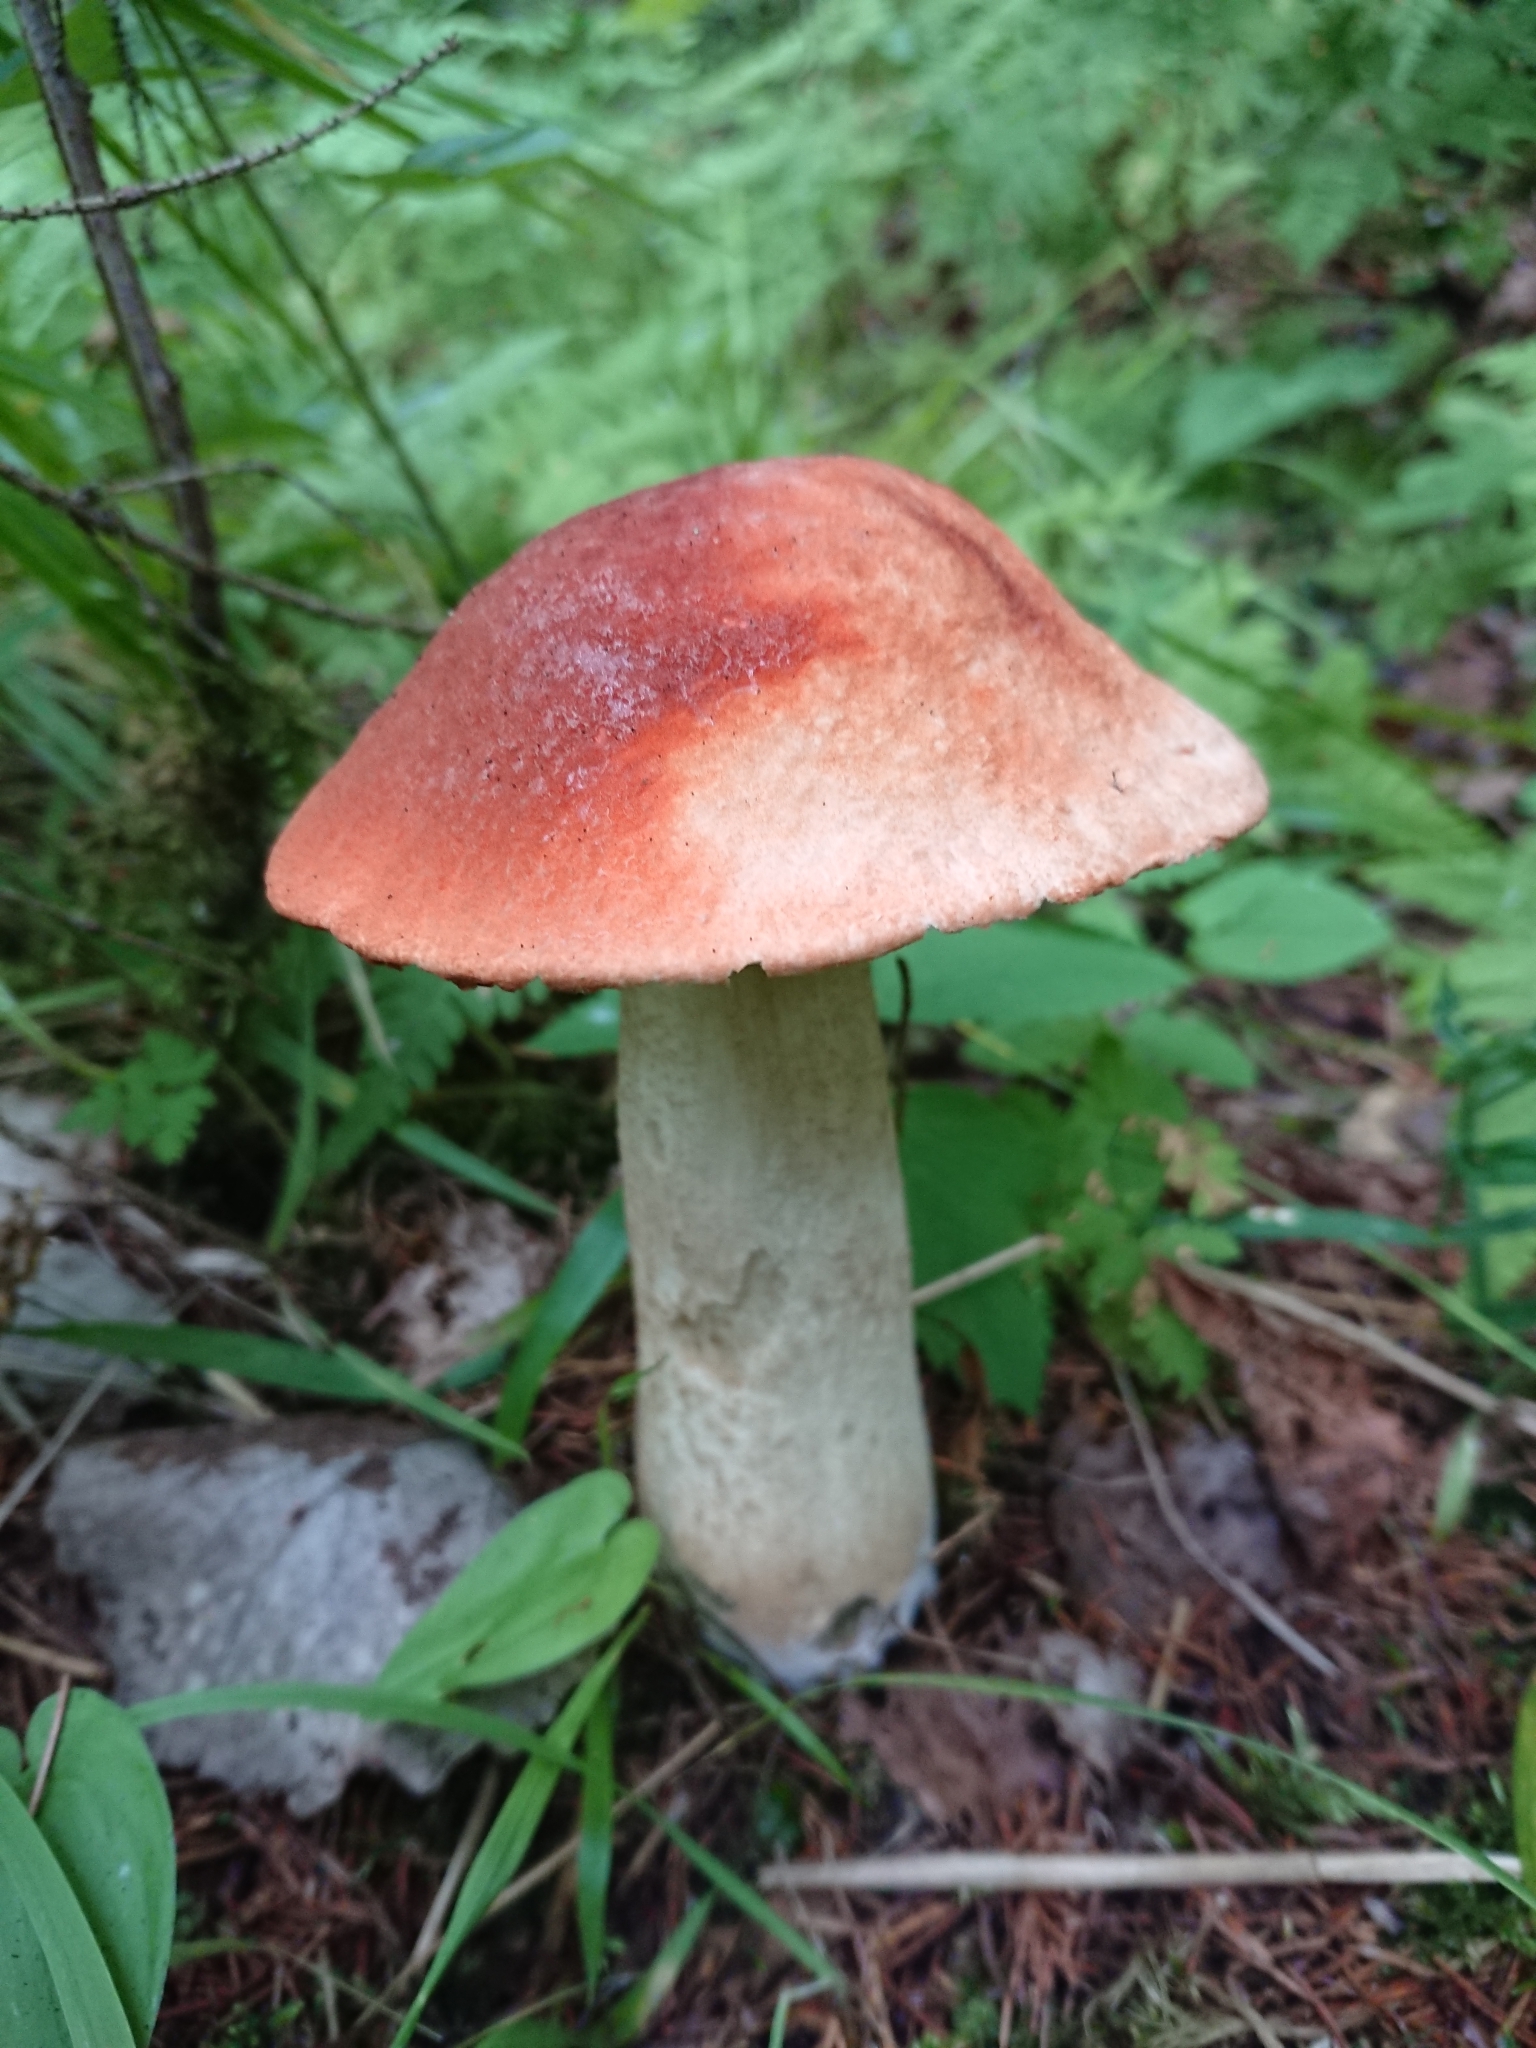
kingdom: Fungi
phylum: Basidiomycota
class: Agaricomycetes
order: Boletales
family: Boletaceae
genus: Leccinum
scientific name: Leccinum aurantiacum
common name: Orange bolete
